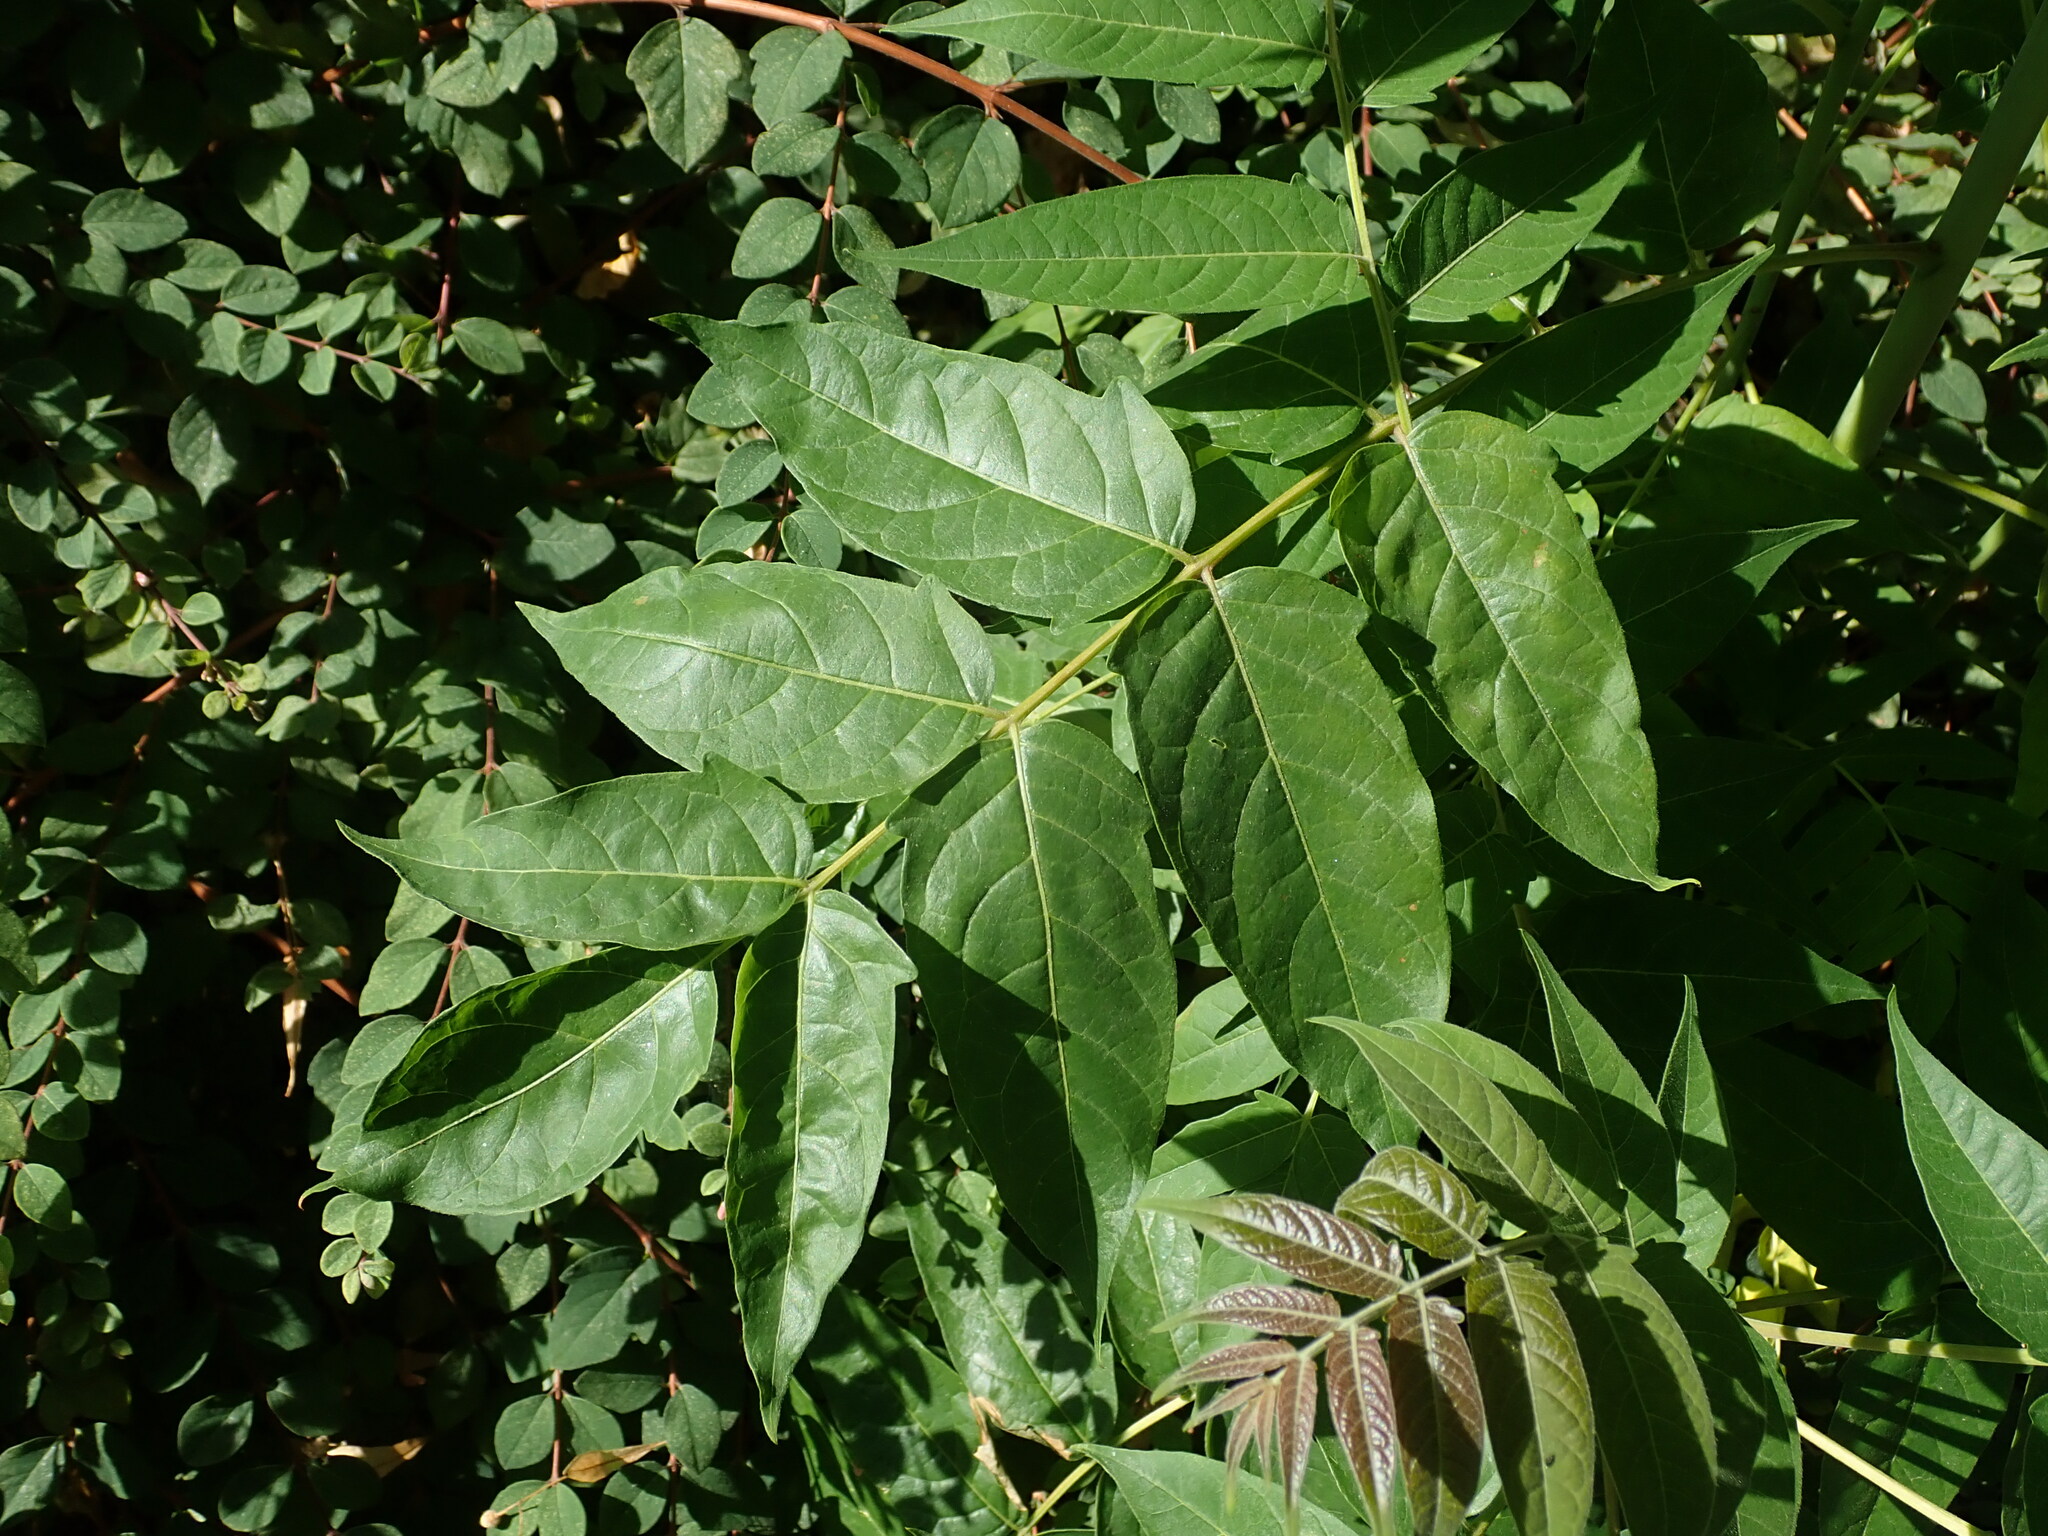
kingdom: Plantae
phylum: Tracheophyta
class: Magnoliopsida
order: Sapindales
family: Simaroubaceae
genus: Ailanthus
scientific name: Ailanthus altissima
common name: Tree-of-heaven
